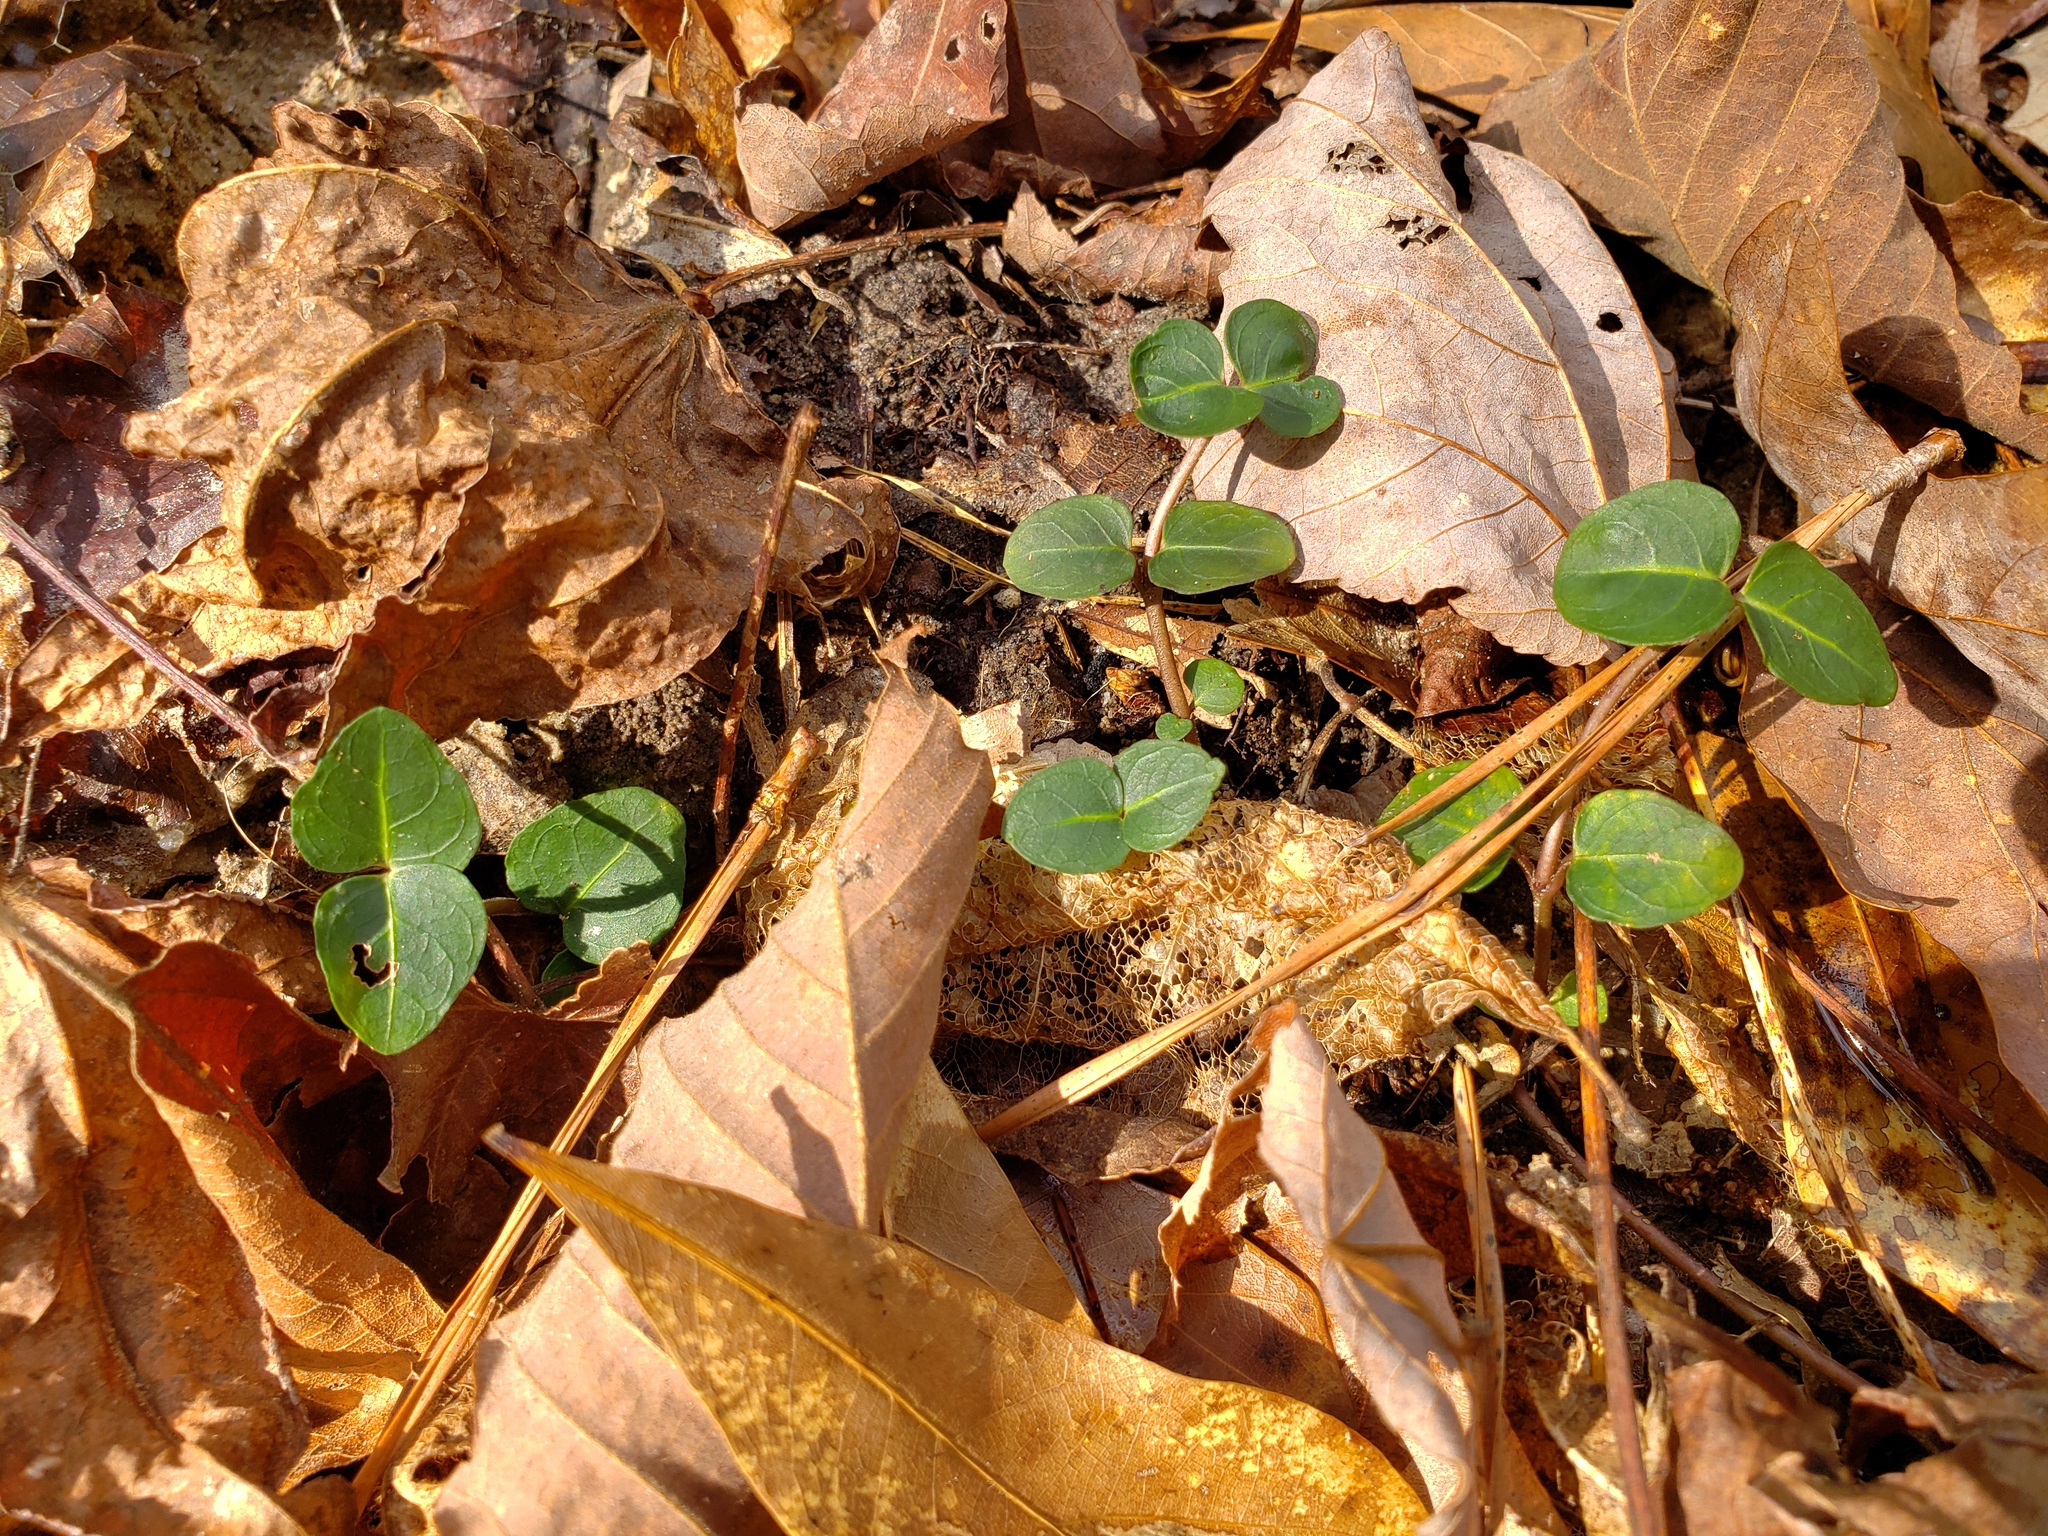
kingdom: Plantae
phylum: Tracheophyta
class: Magnoliopsida
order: Gentianales
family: Rubiaceae
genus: Mitchella
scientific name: Mitchella repens
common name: Partridge-berry
